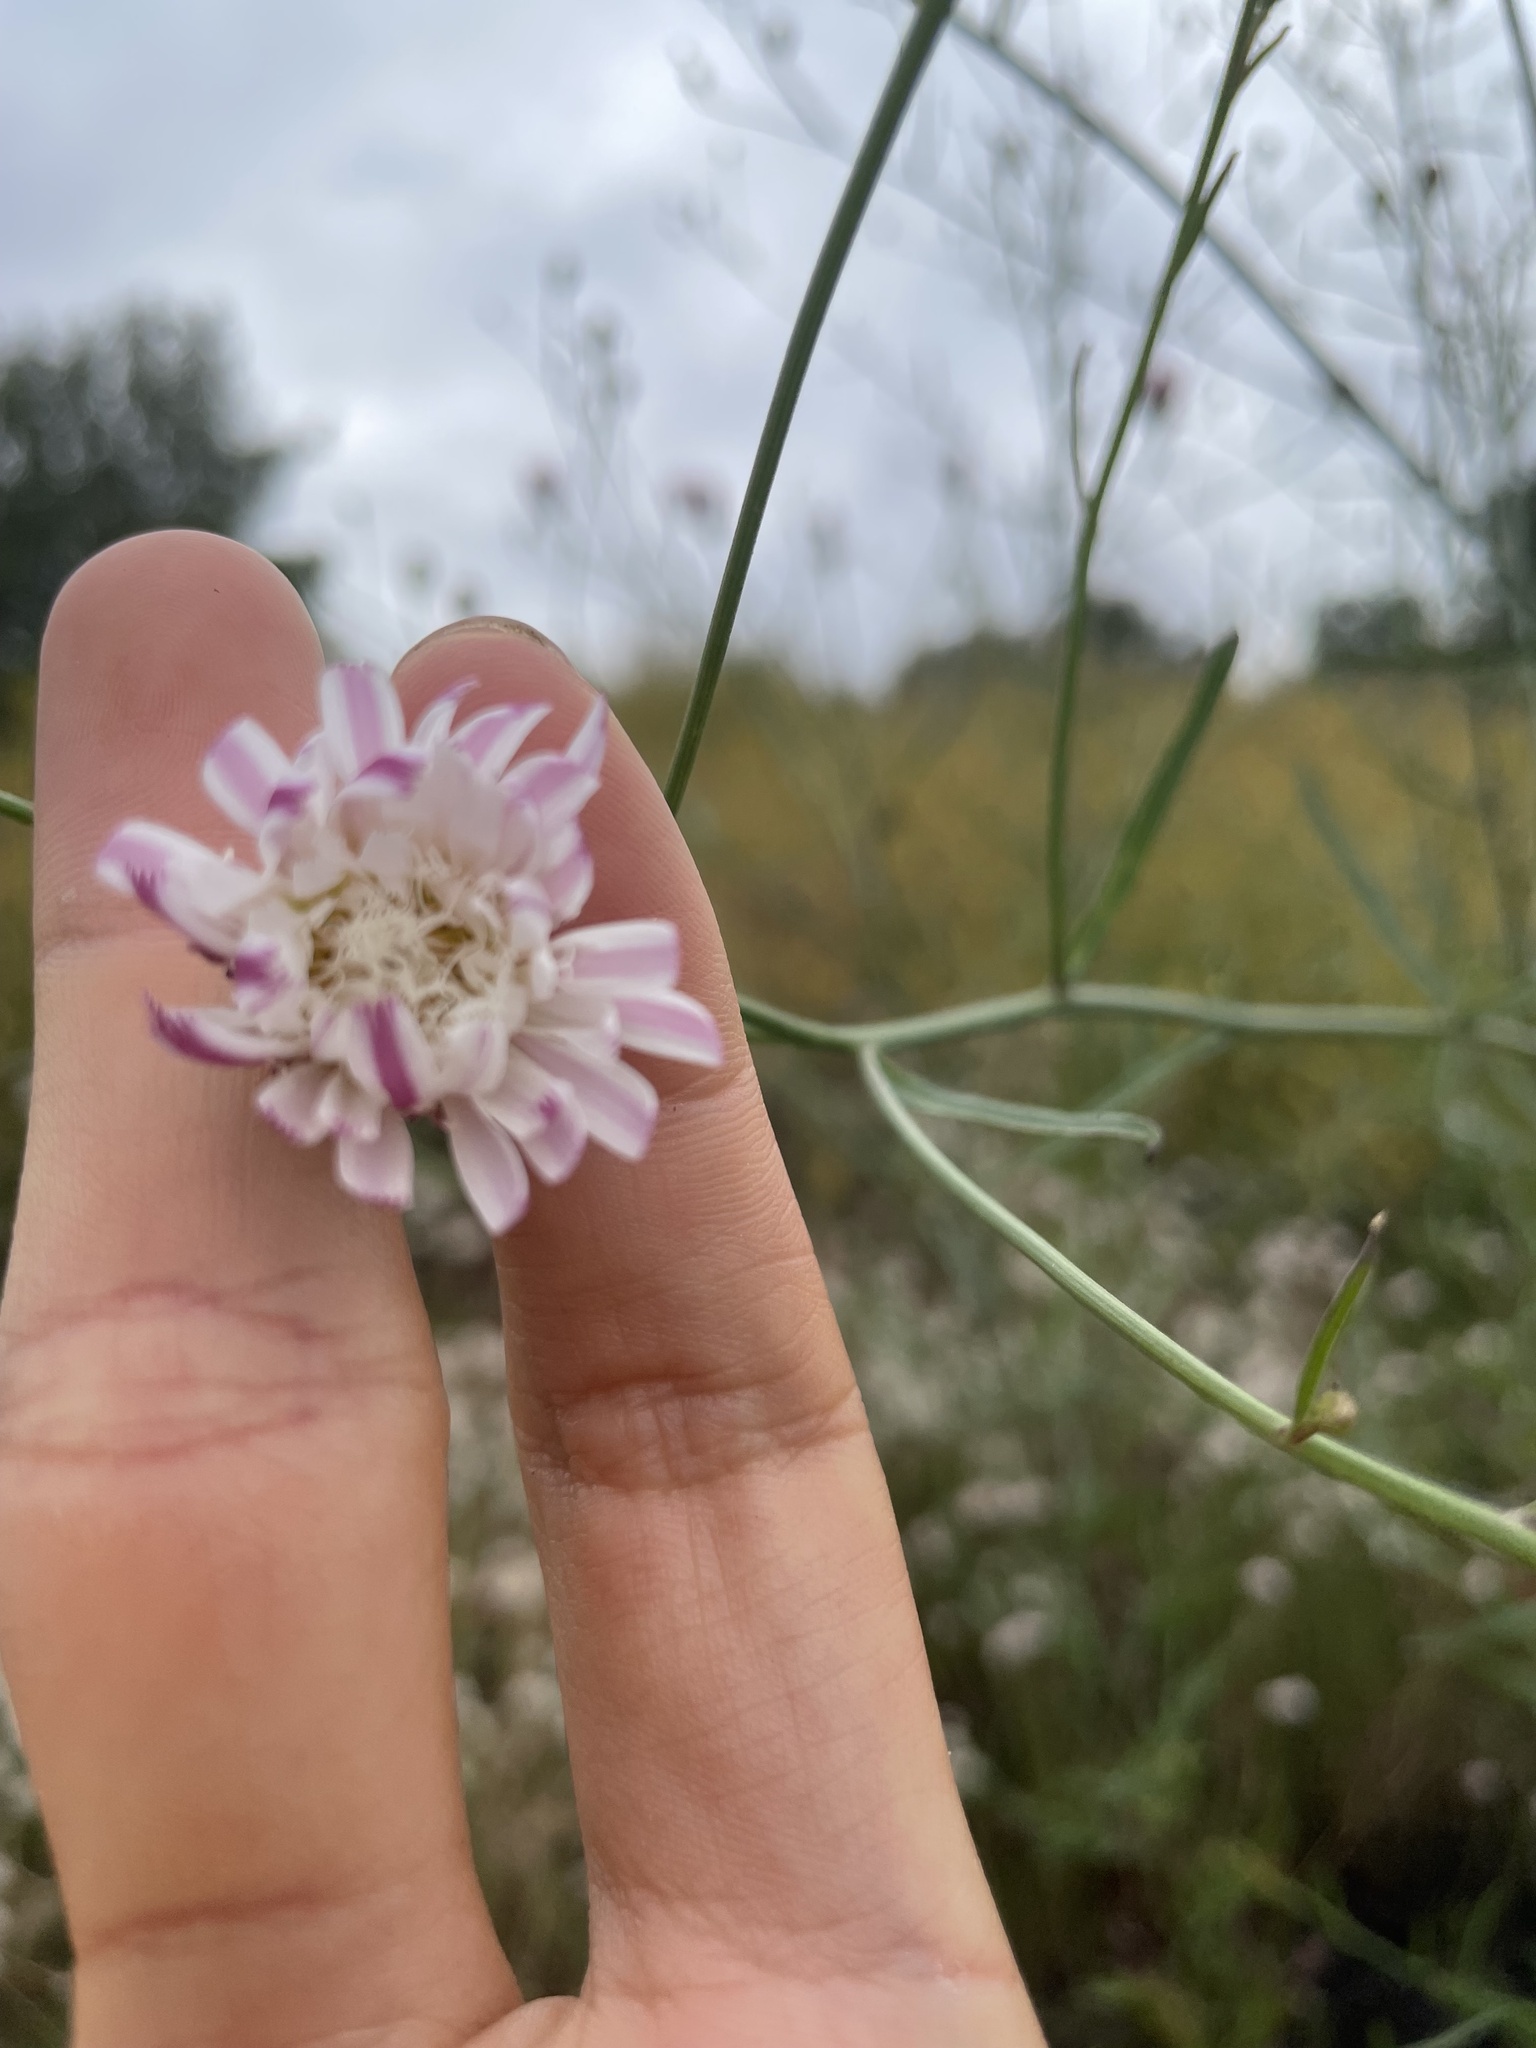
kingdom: Plantae
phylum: Tracheophyta
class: Magnoliopsida
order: Asterales
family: Asteraceae
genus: Malacothrix
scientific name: Malacothrix saxatilis
